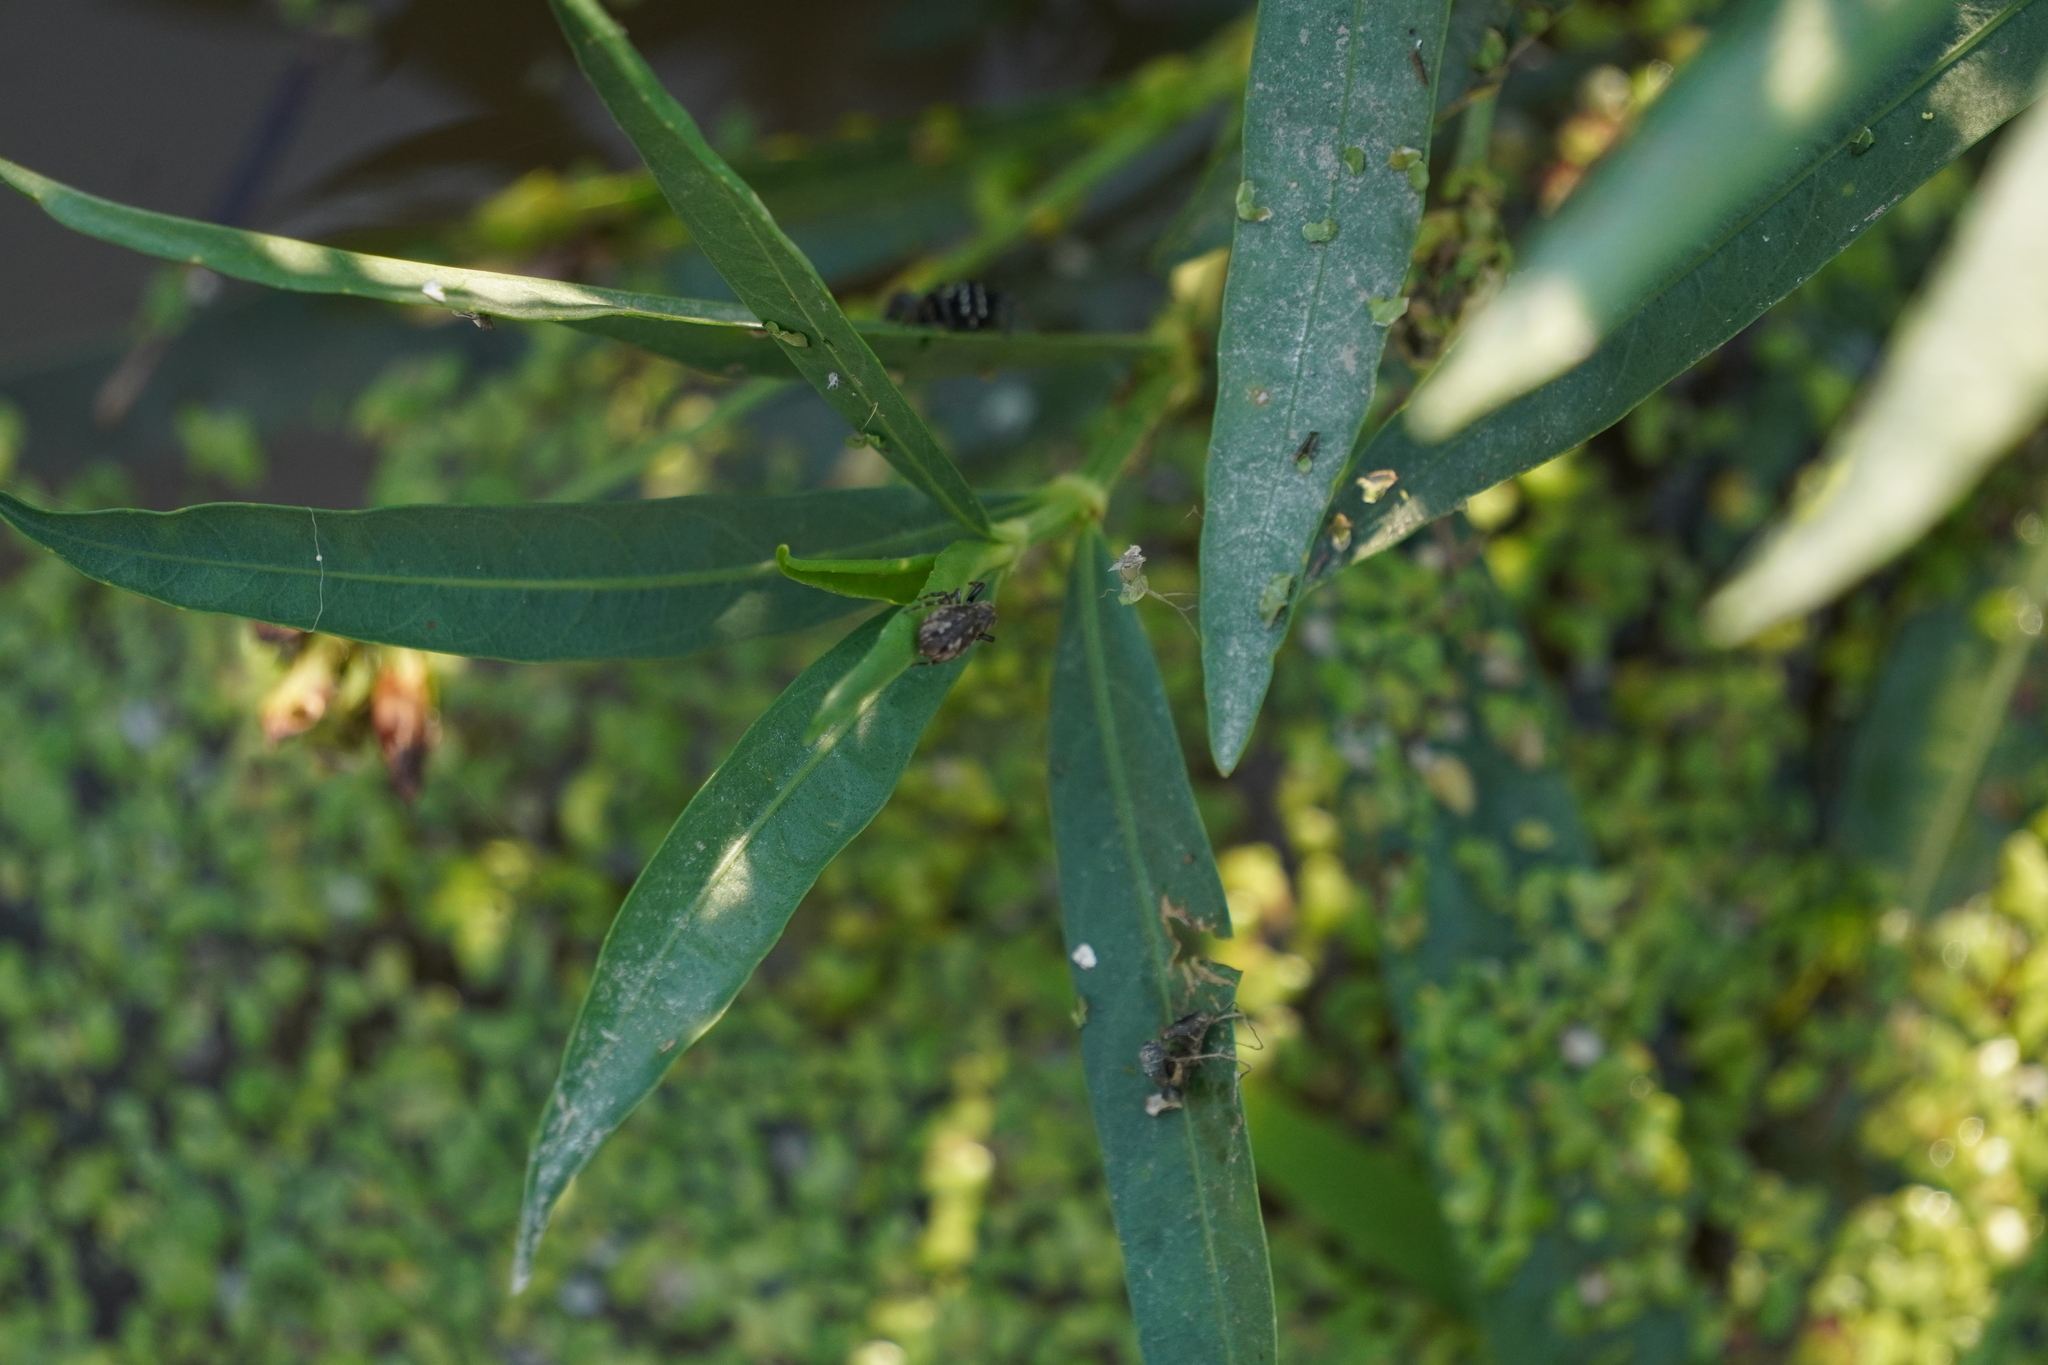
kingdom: Animalia
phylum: Arthropoda
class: Arachnida
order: Araneae
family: Salticidae
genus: Zygoballus
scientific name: Zygoballus nervosus
